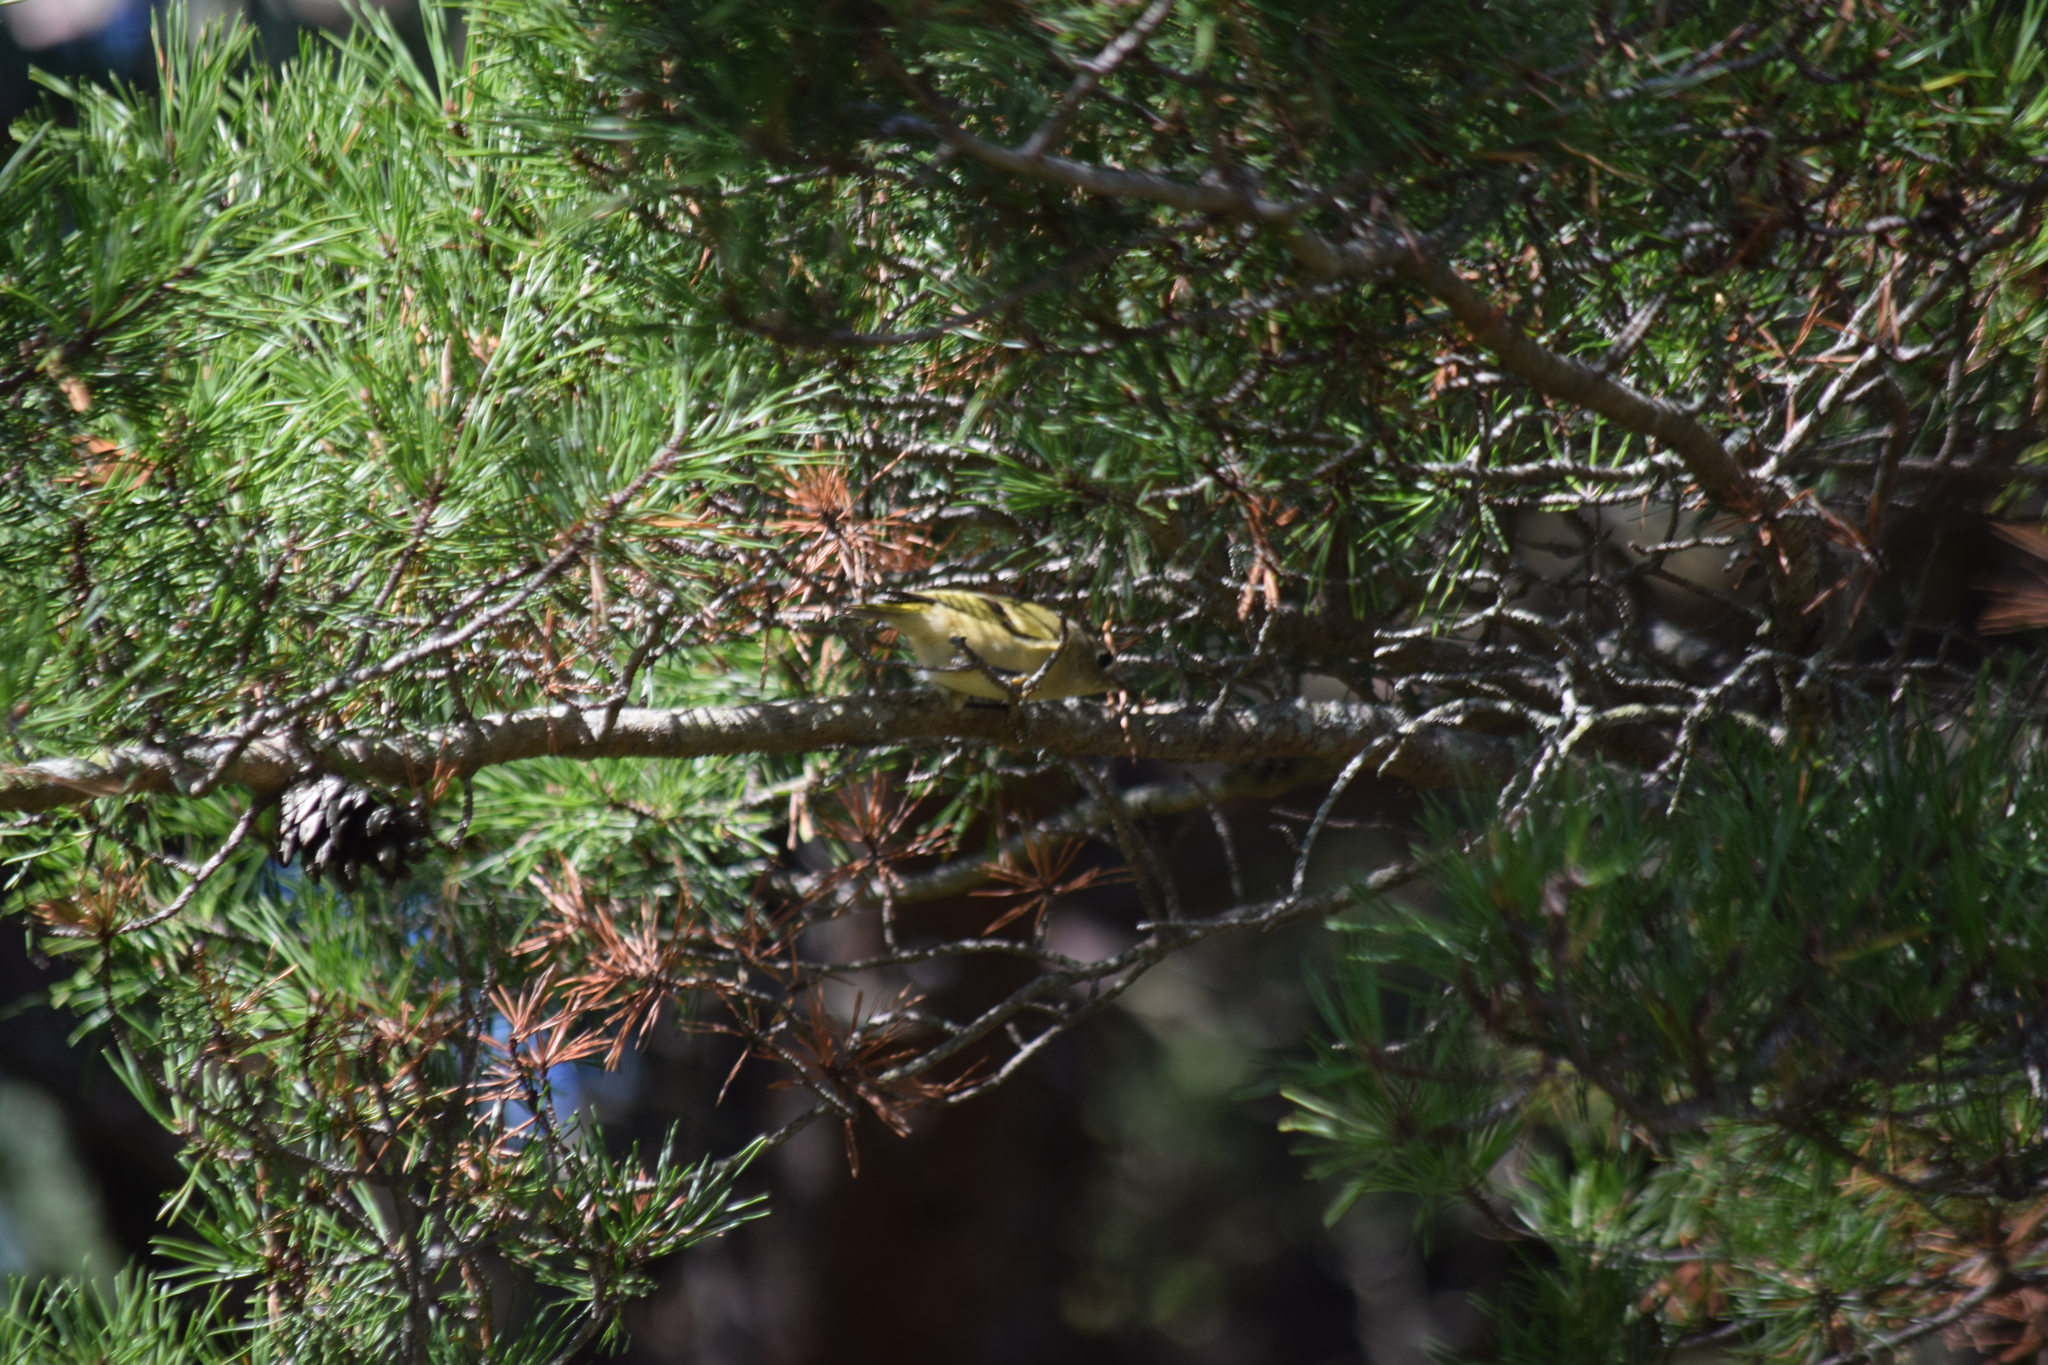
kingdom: Animalia
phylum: Chordata
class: Aves
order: Passeriformes
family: Regulidae
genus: Regulus
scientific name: Regulus calendula
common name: Ruby-crowned kinglet
